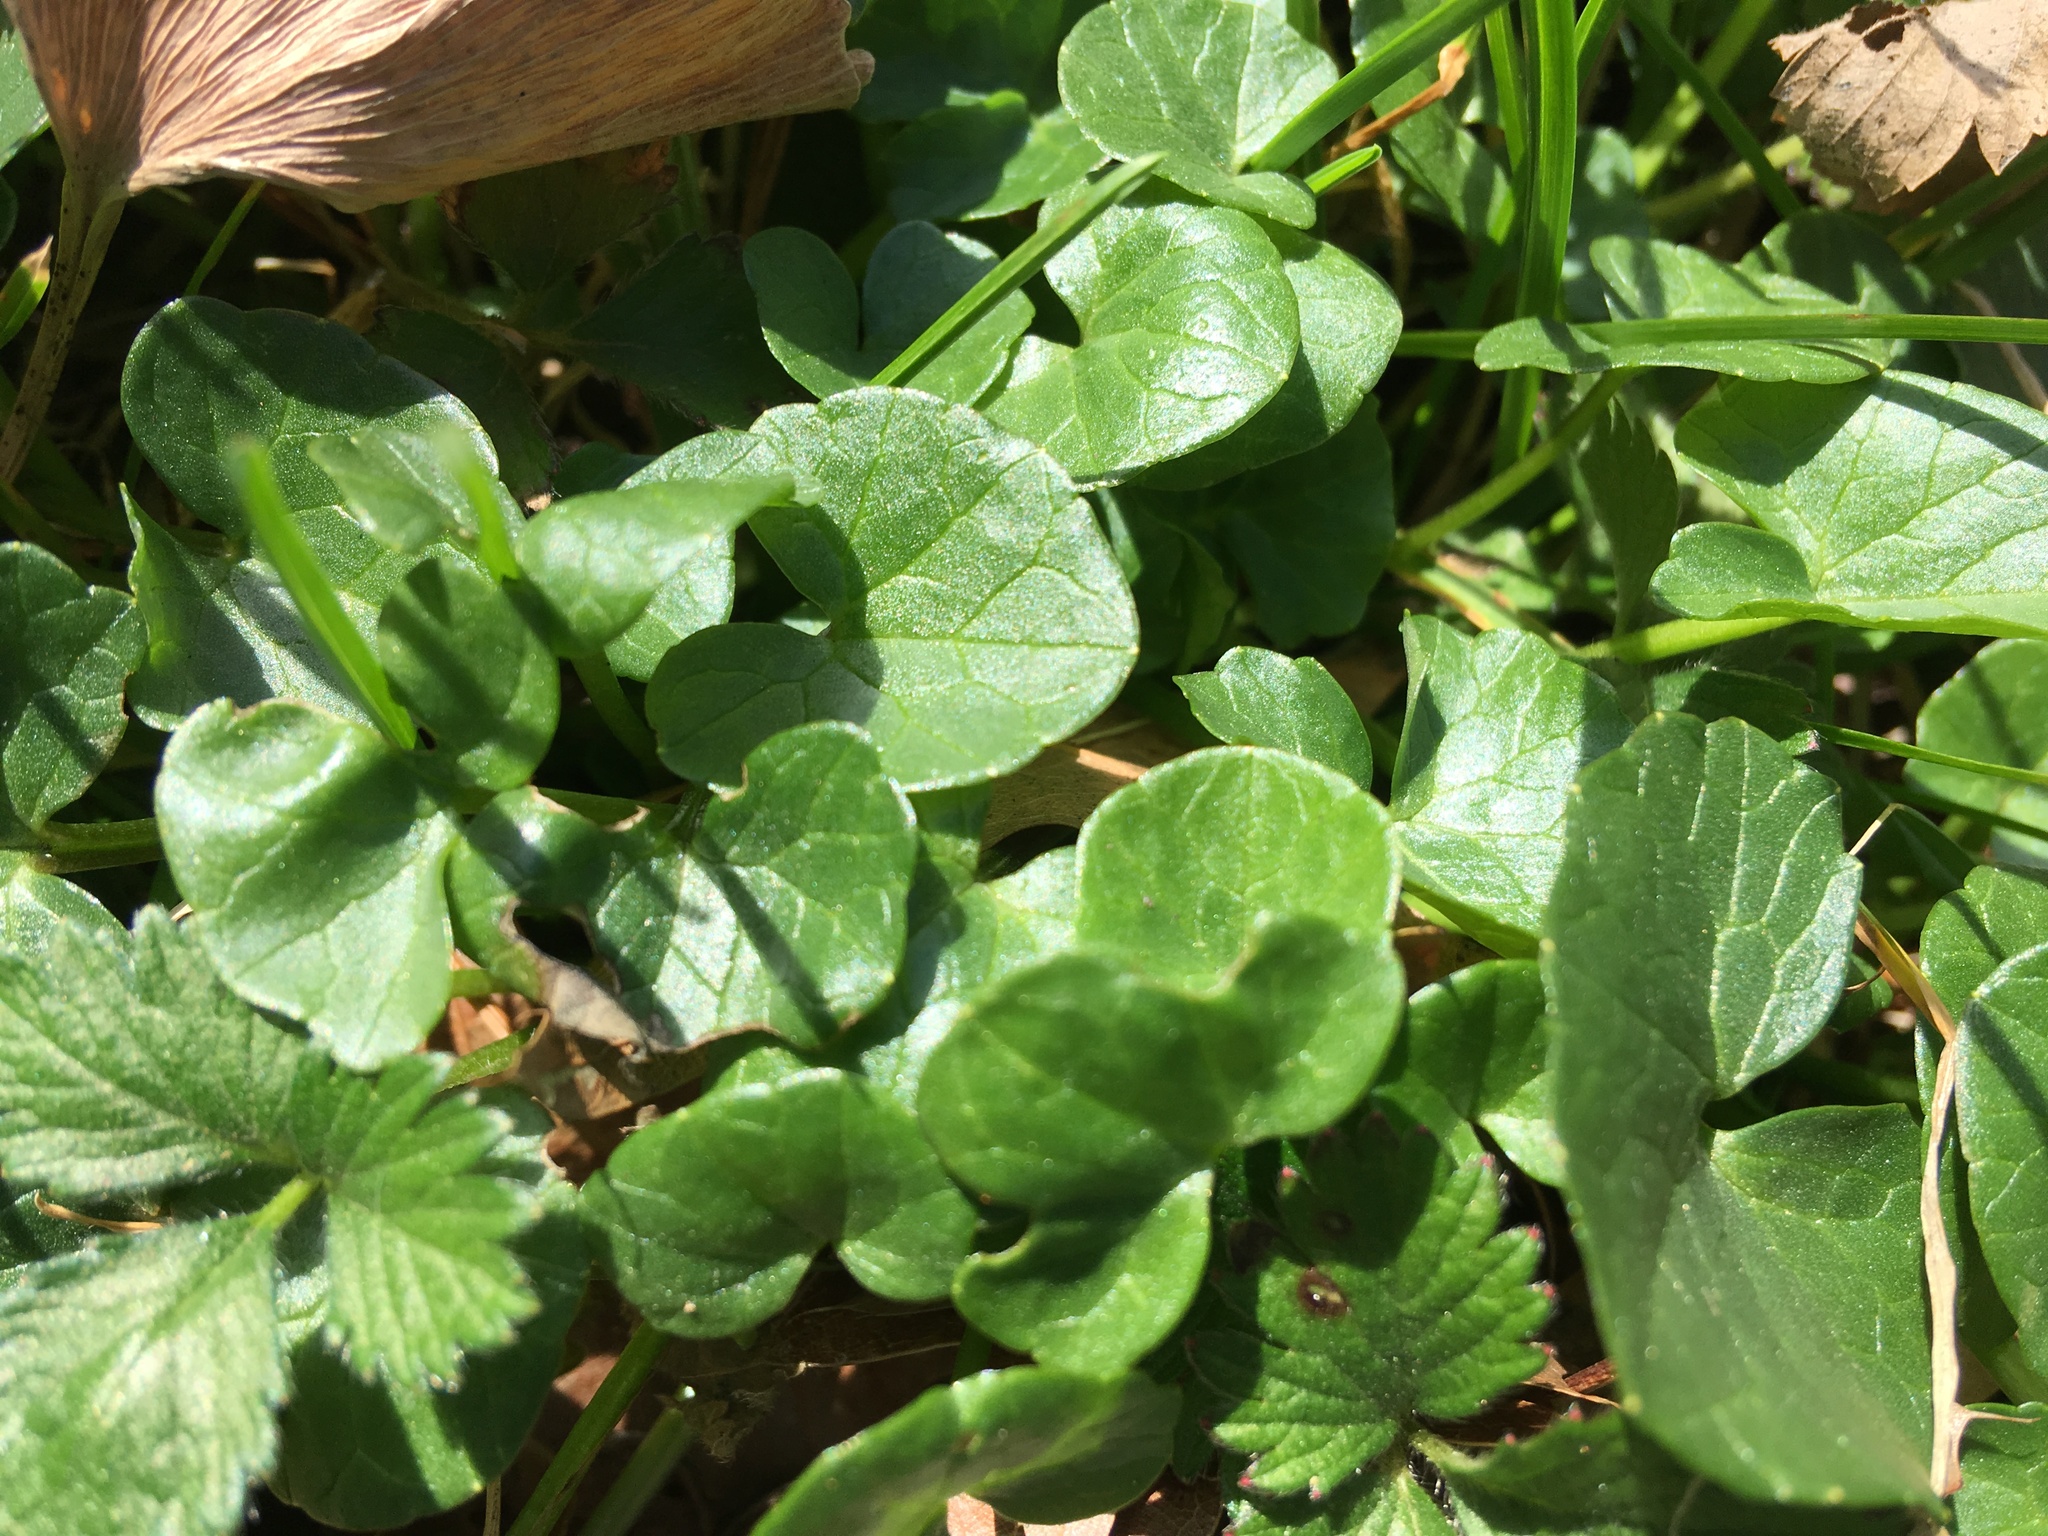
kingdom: Plantae
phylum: Tracheophyta
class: Magnoliopsida
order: Ranunculales
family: Ranunculaceae
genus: Ficaria
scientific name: Ficaria verna
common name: Lesser celandine
